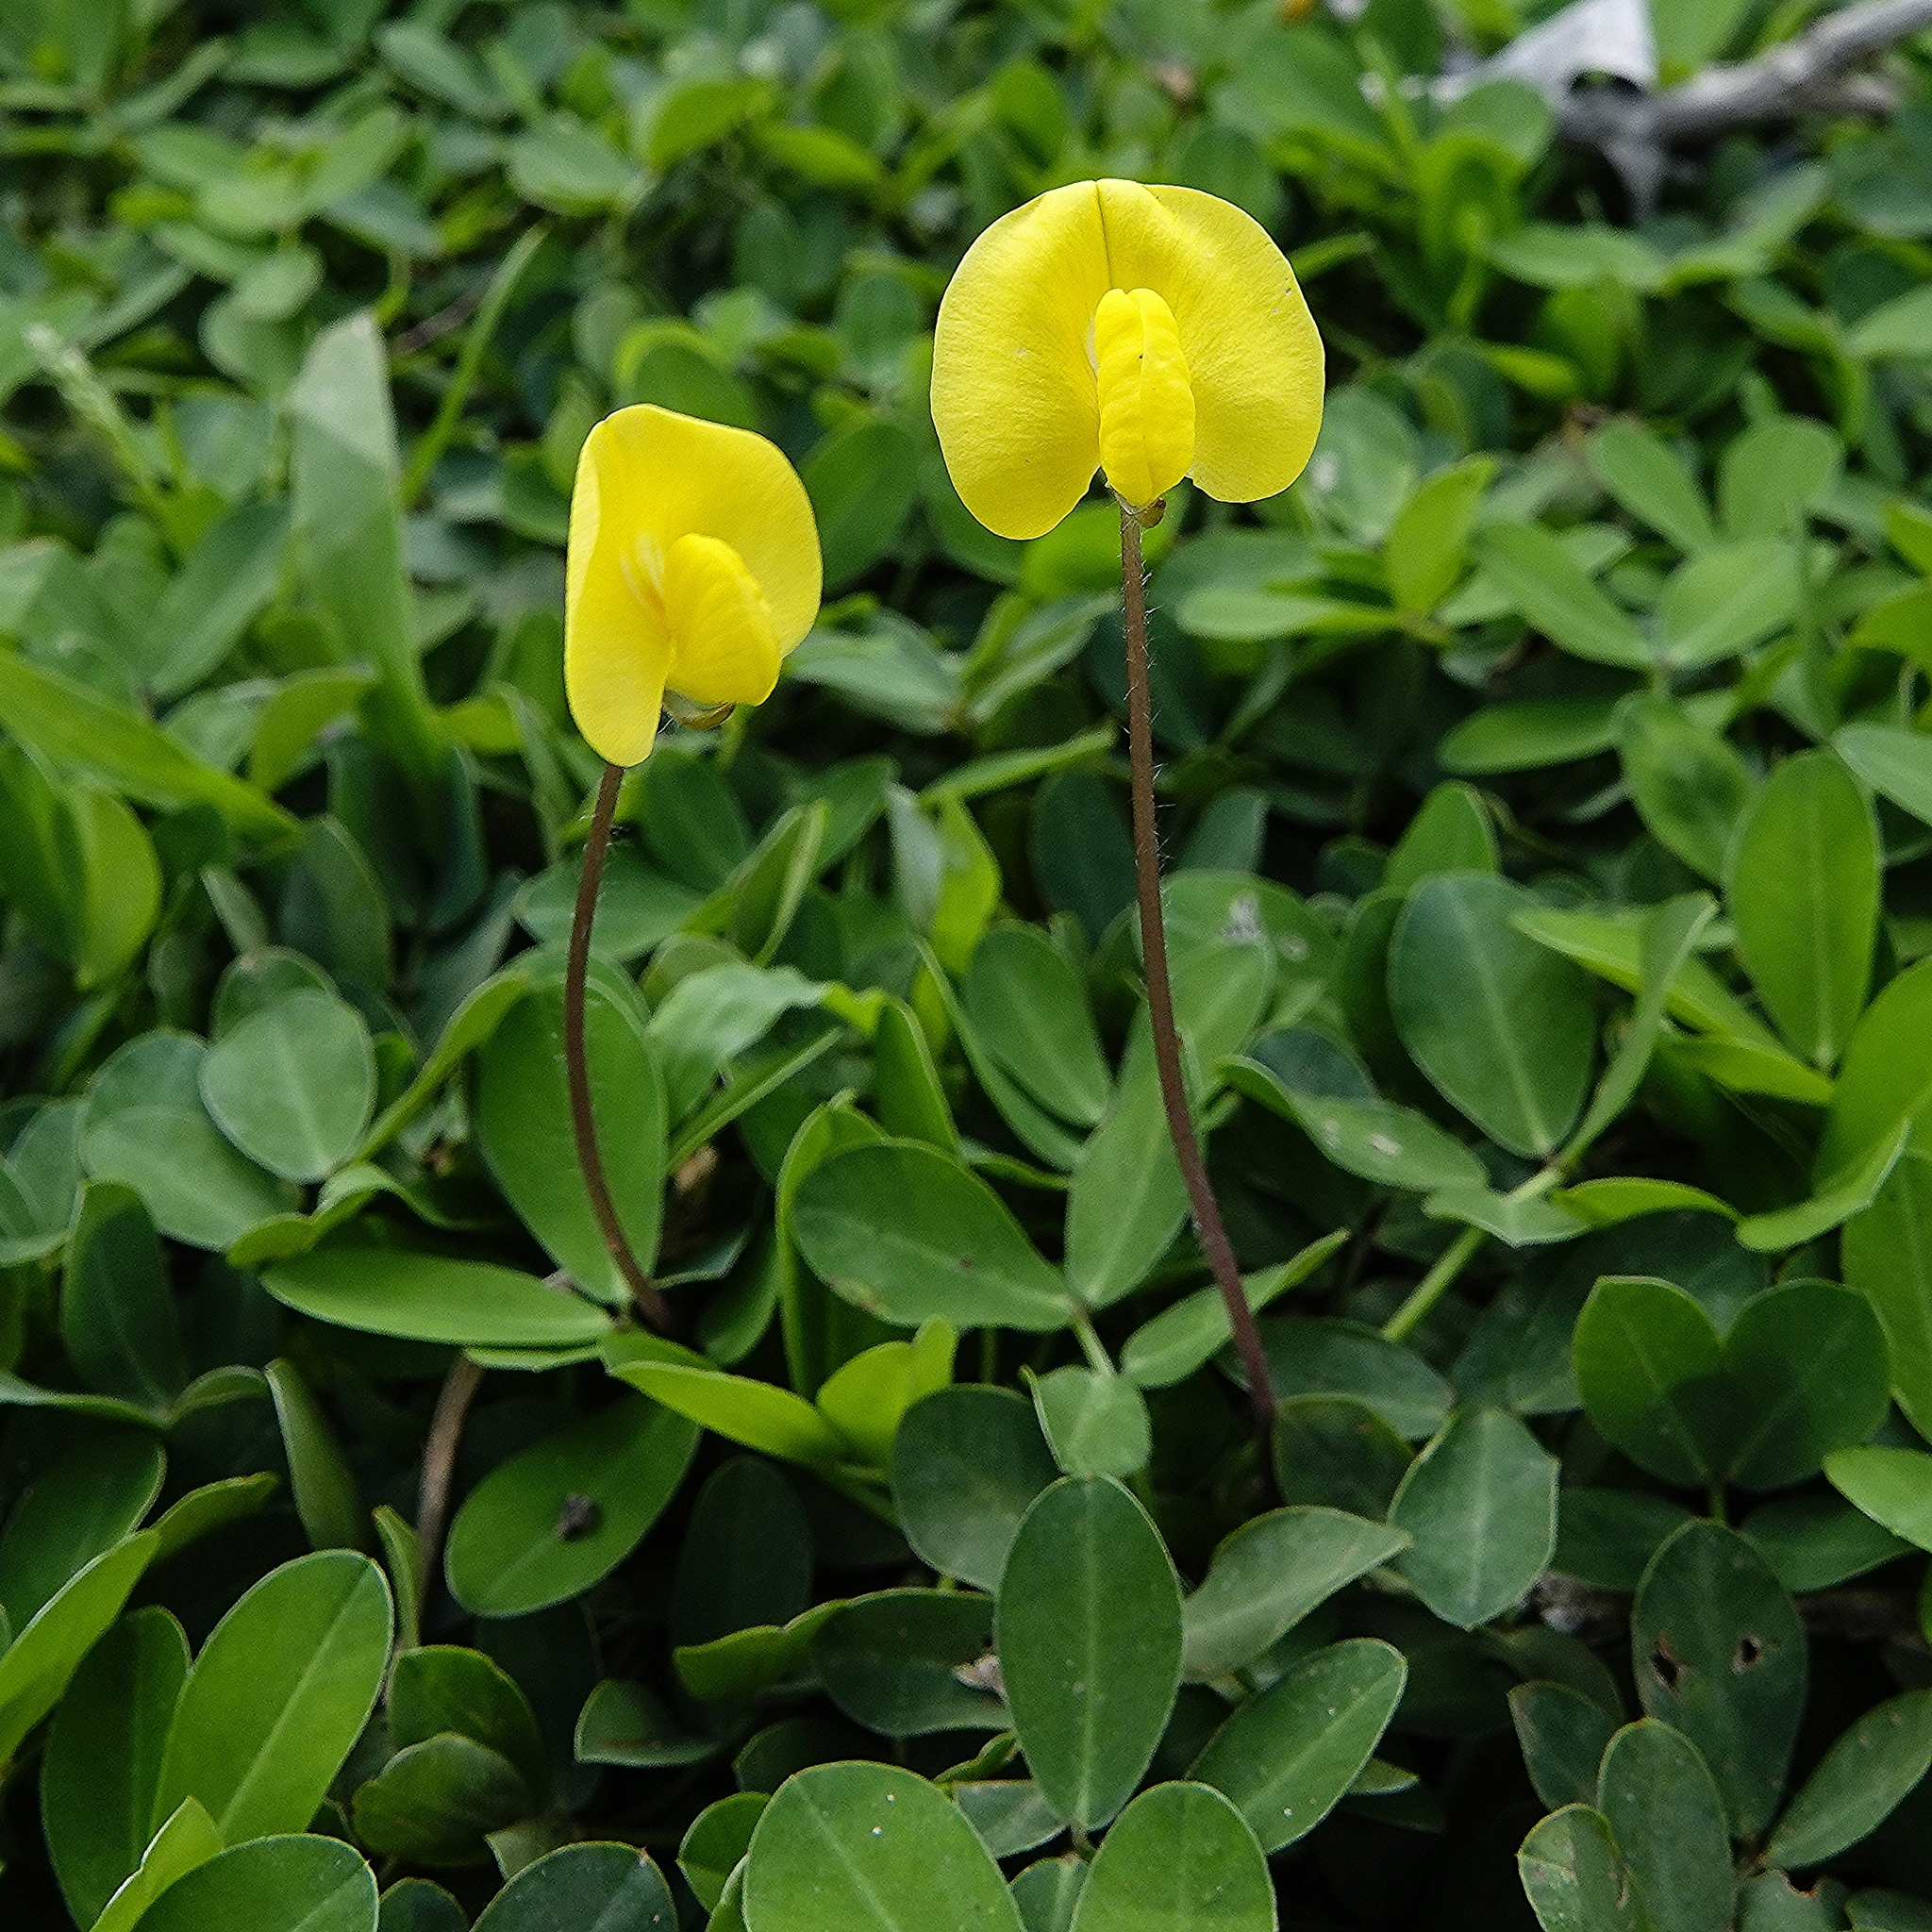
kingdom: Plantae
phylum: Tracheophyta
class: Magnoliopsida
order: Fabales
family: Fabaceae
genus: Arachis
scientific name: Arachis pintoi
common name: Pinto peanut
